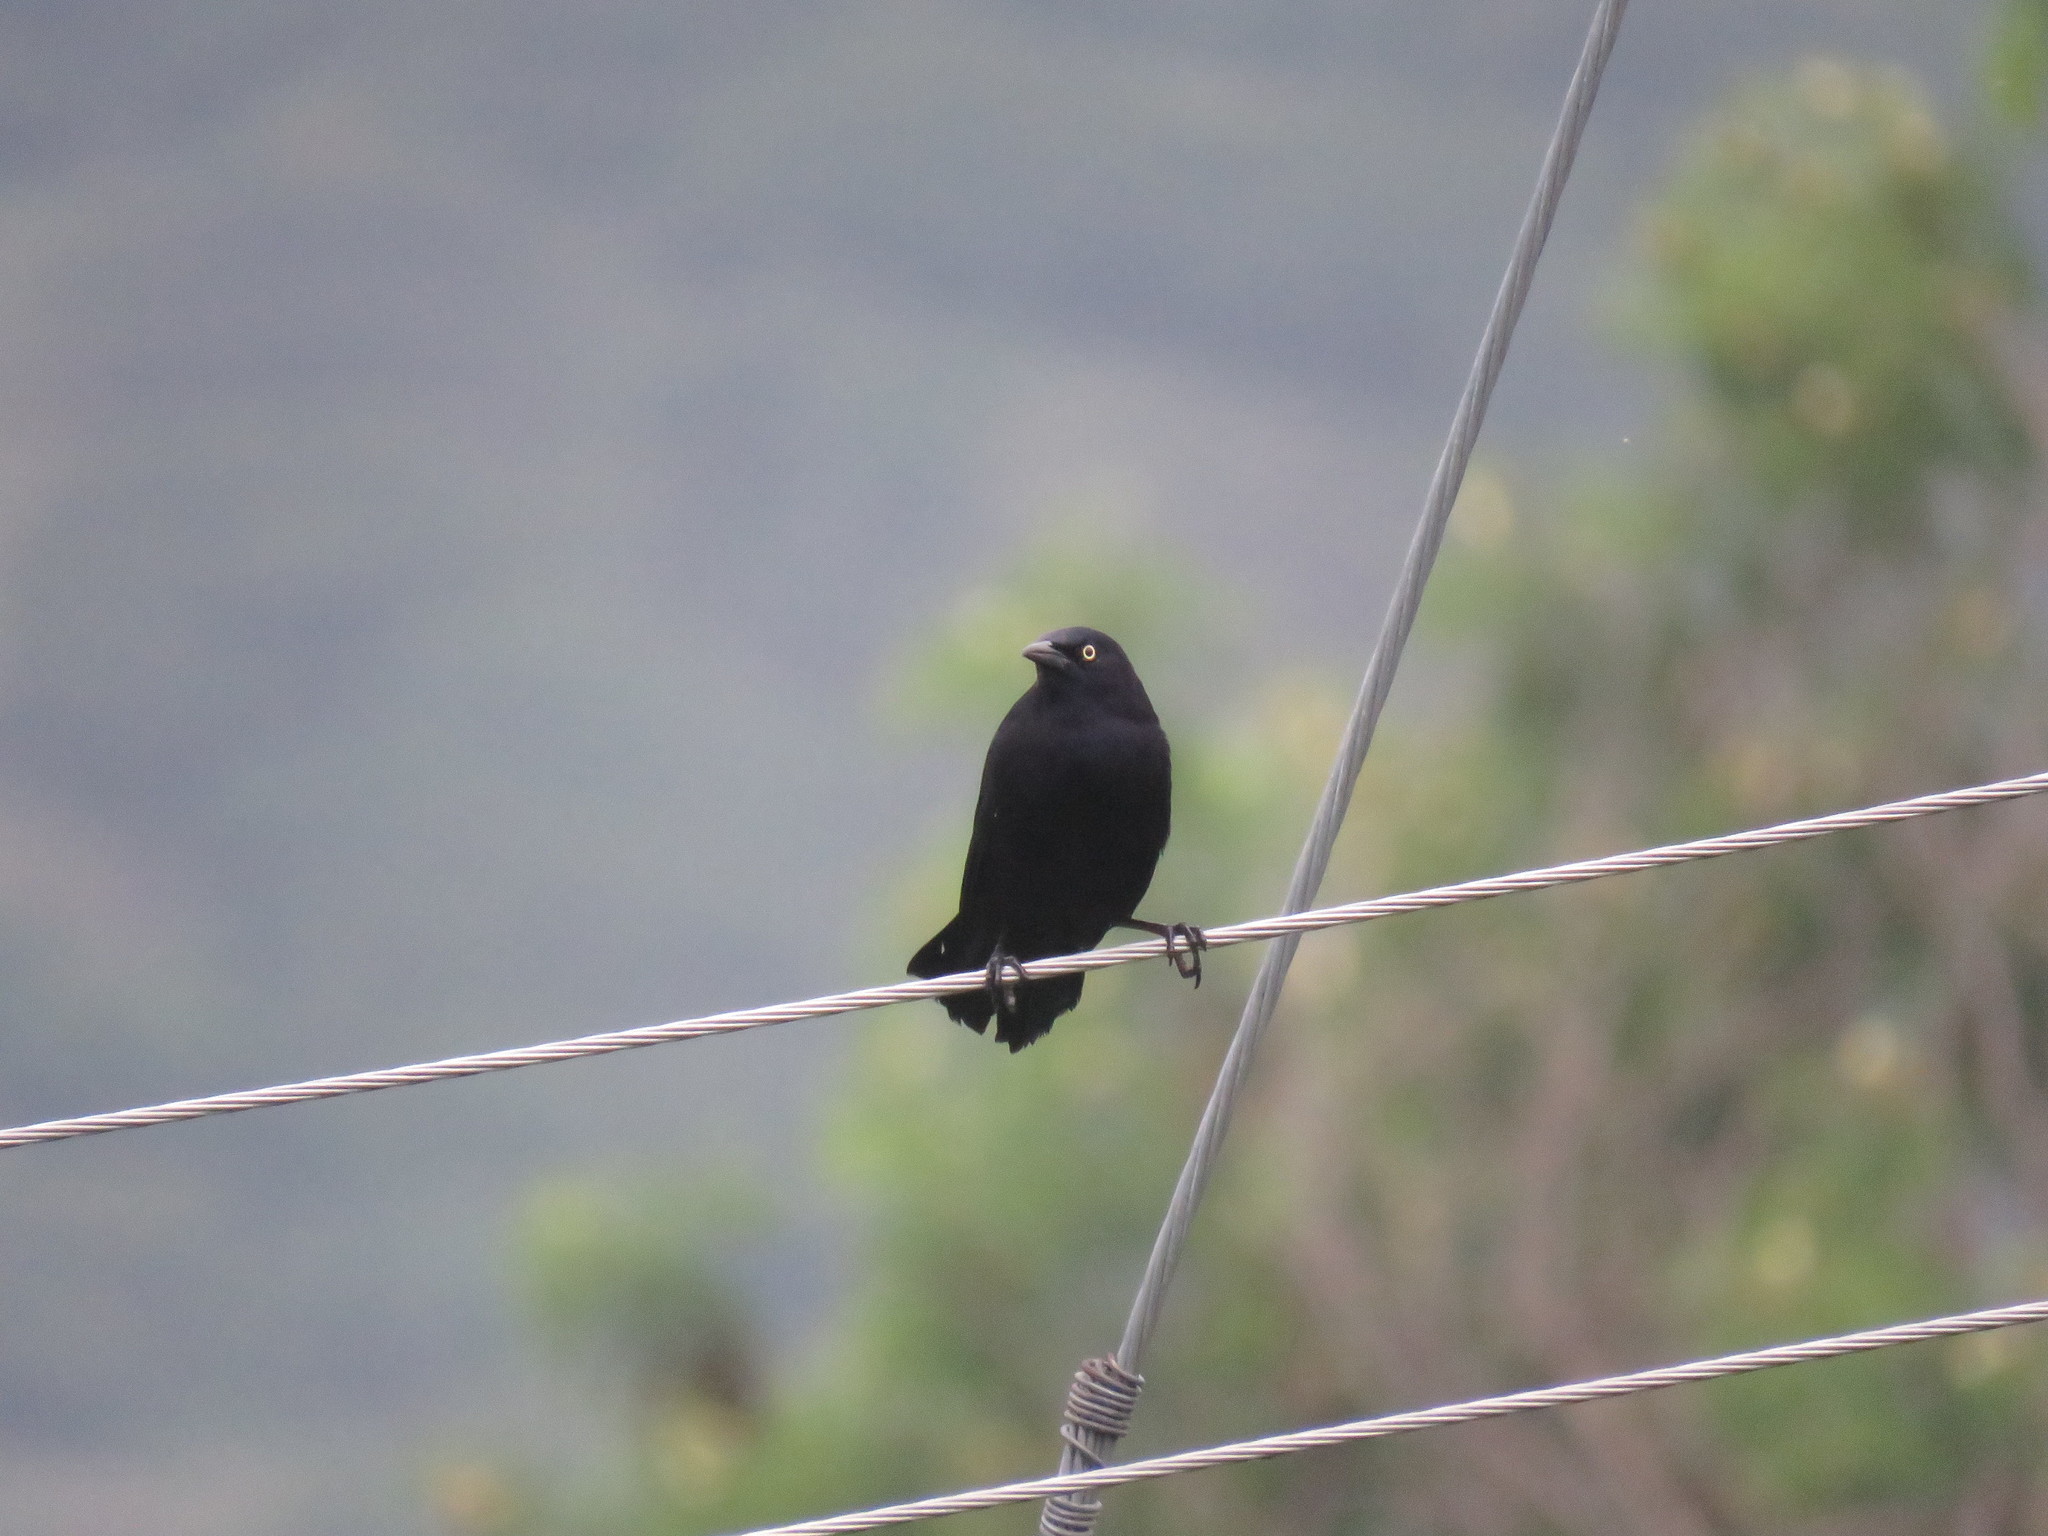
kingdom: Animalia
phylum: Chordata
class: Aves
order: Passeriformes
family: Icteridae
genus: Quiscalus
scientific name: Quiscalus lugubris
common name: Carib grackle
